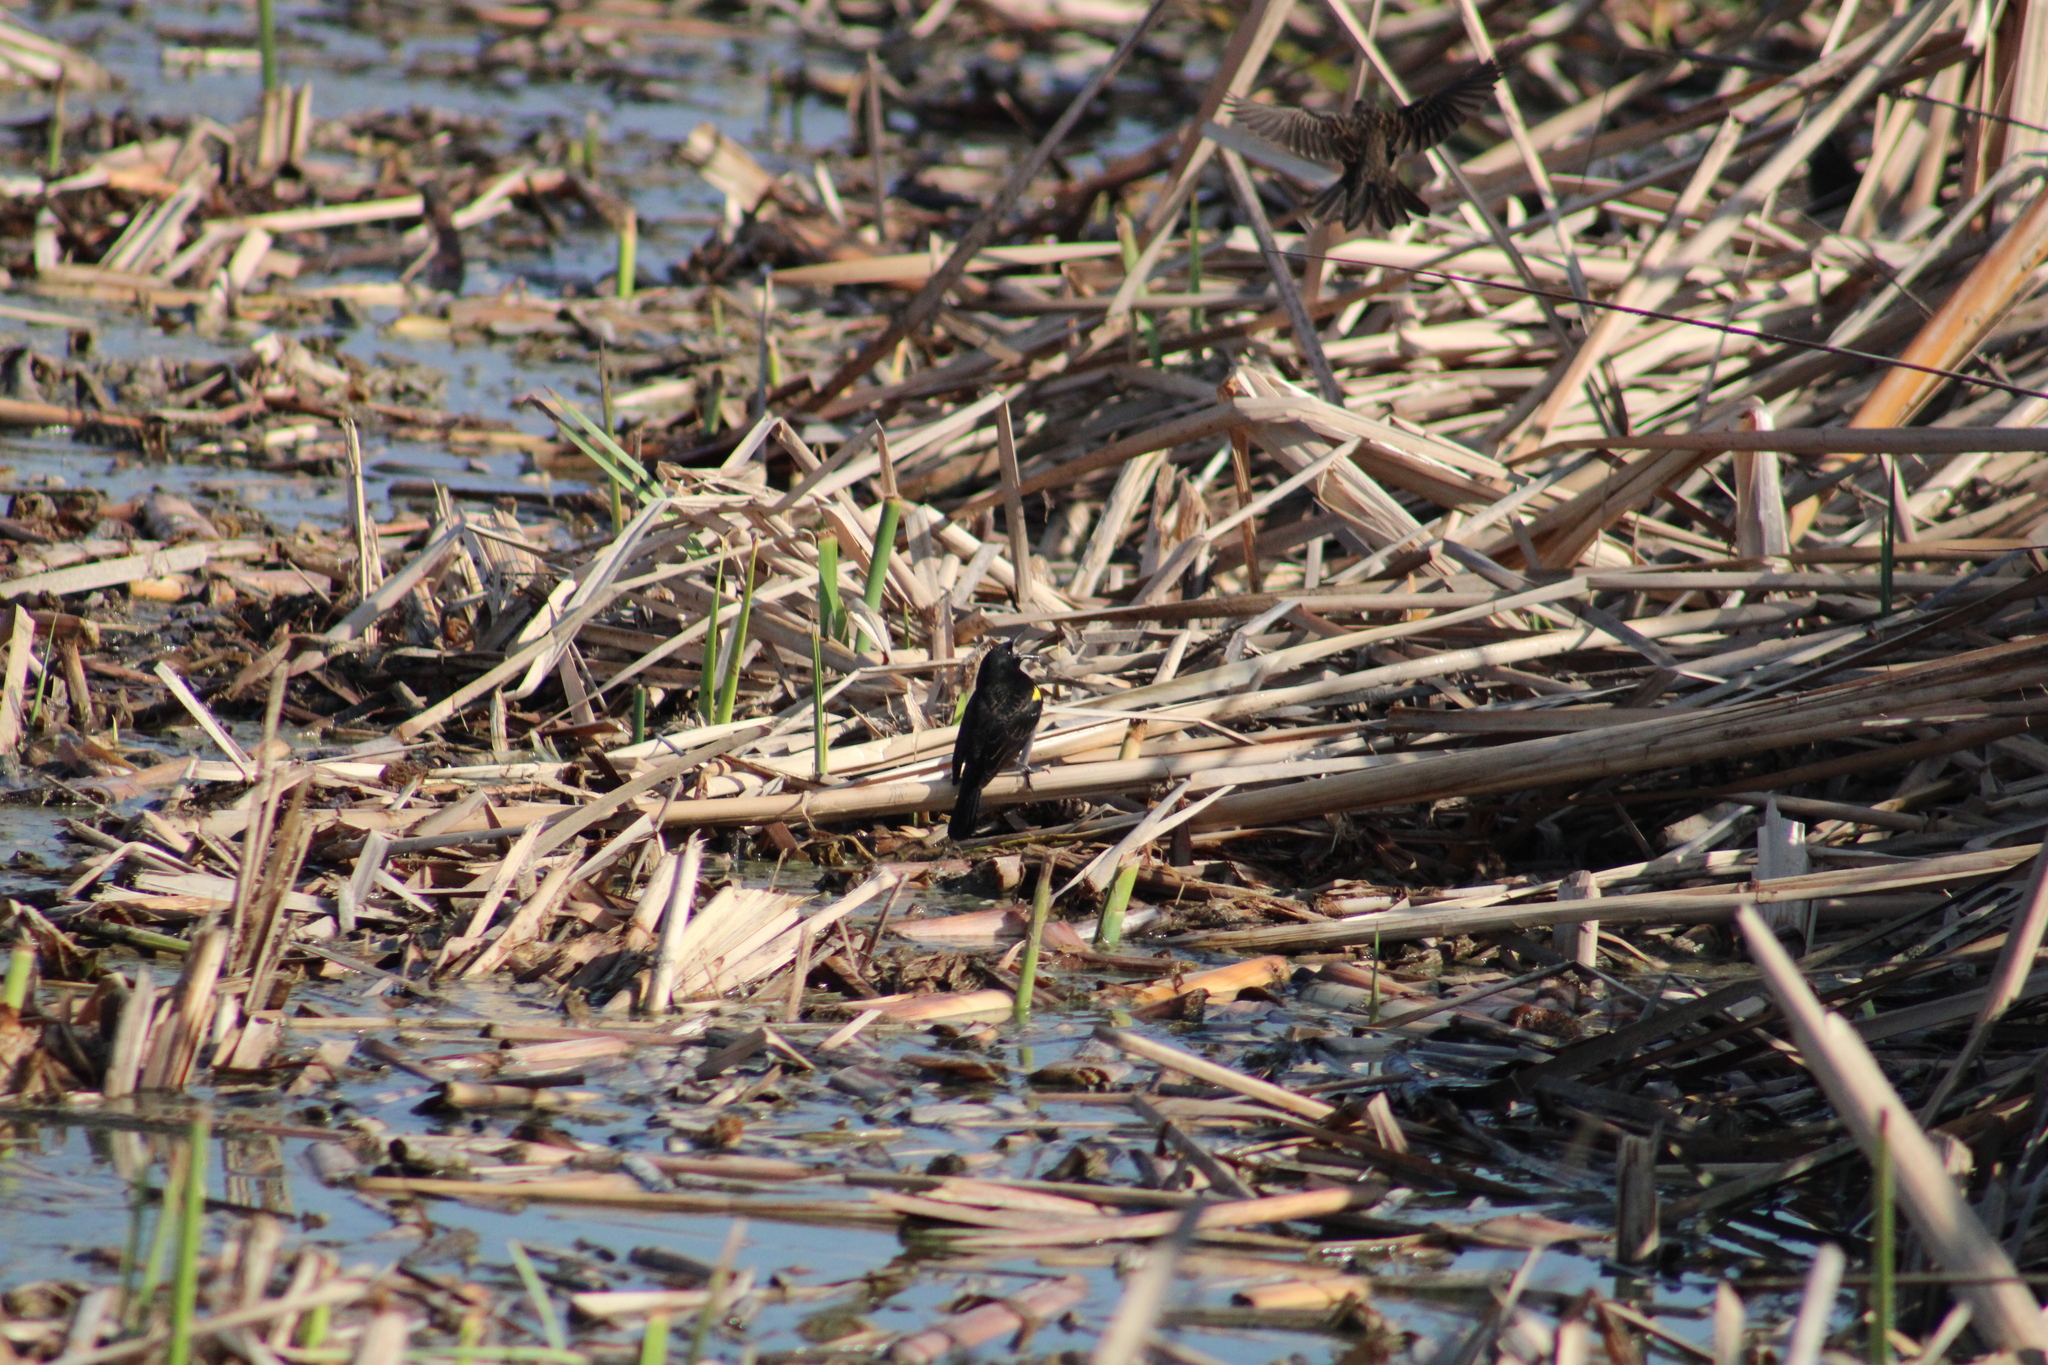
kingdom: Animalia
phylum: Chordata
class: Aves
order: Passeriformes
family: Icteridae
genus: Agelasticus
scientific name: Agelasticus thilius
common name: Yellow-winged blackbird
